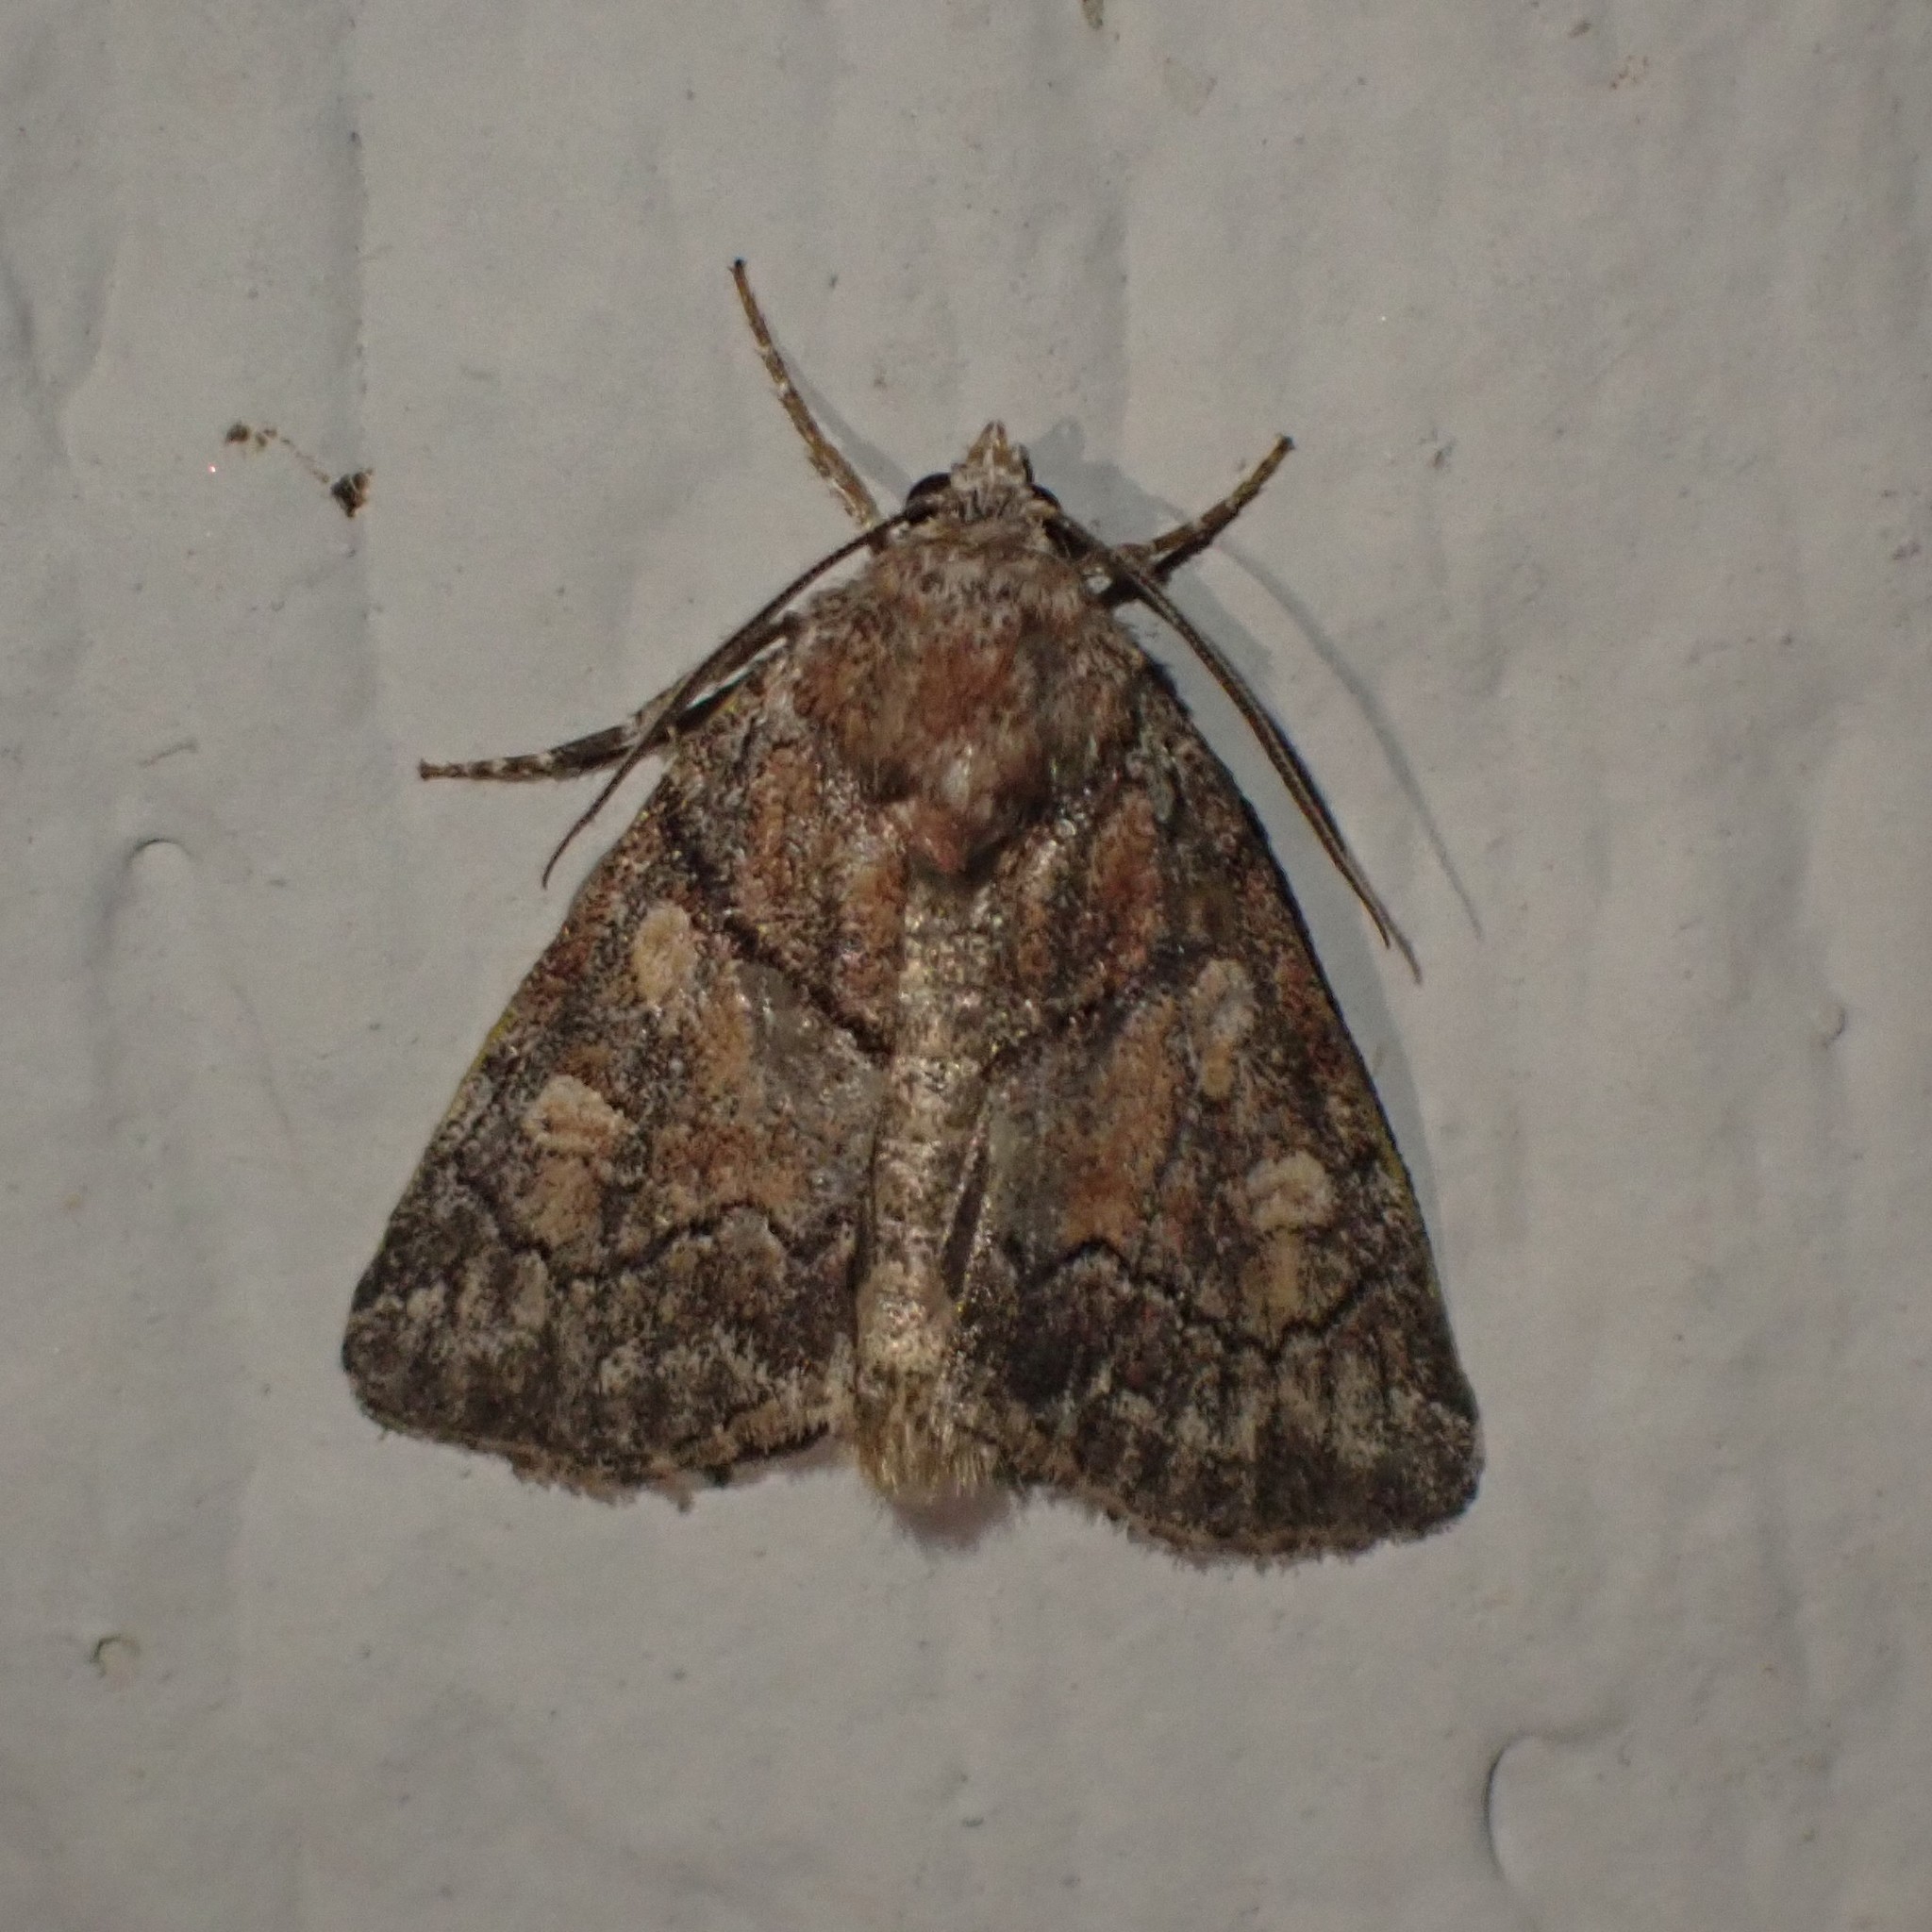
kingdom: Animalia
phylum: Arthropoda
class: Insecta
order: Lepidoptera
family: Noctuidae
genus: Cosmia
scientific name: Cosmia praeacuta
